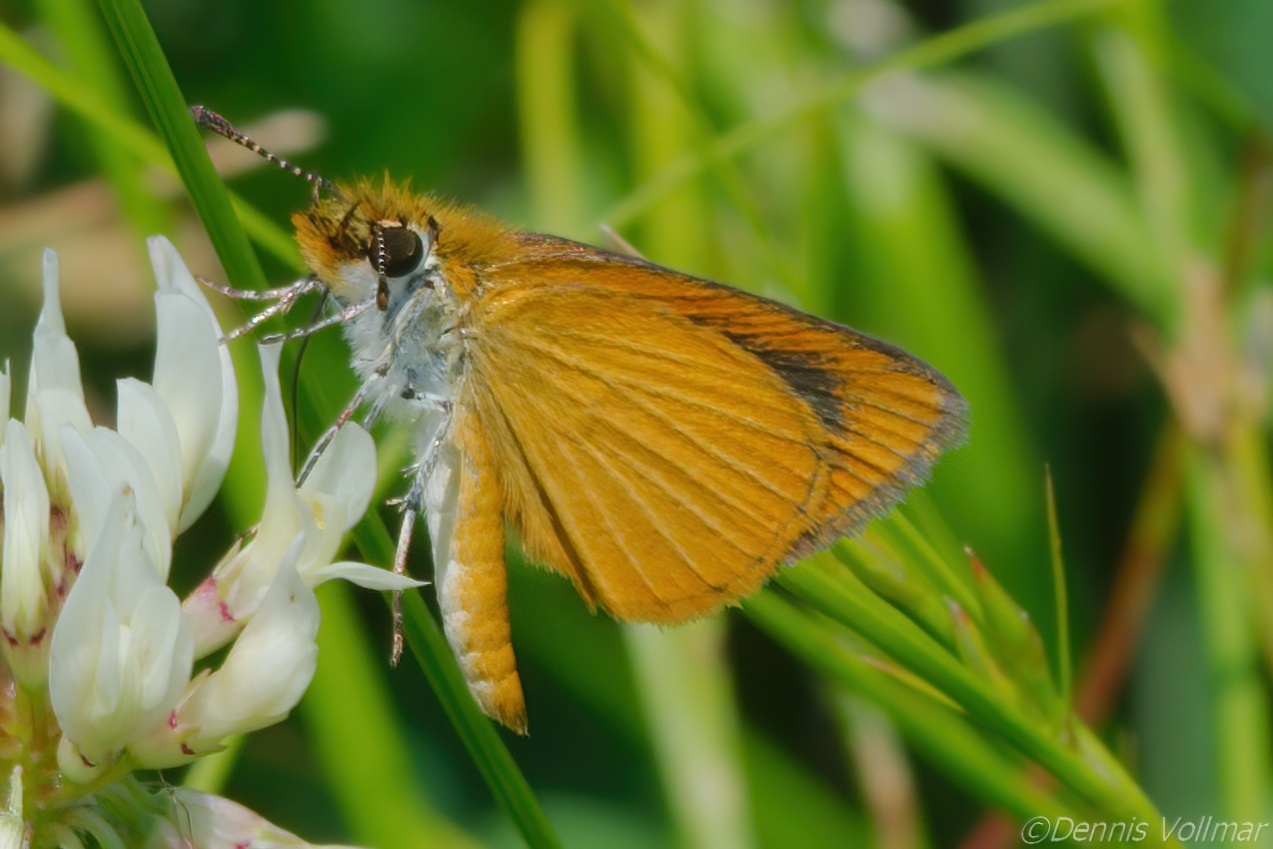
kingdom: Animalia
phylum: Arthropoda
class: Insecta
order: Lepidoptera
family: Hesperiidae
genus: Ancyloxypha
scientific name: Ancyloxypha numitor
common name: Least skipper
